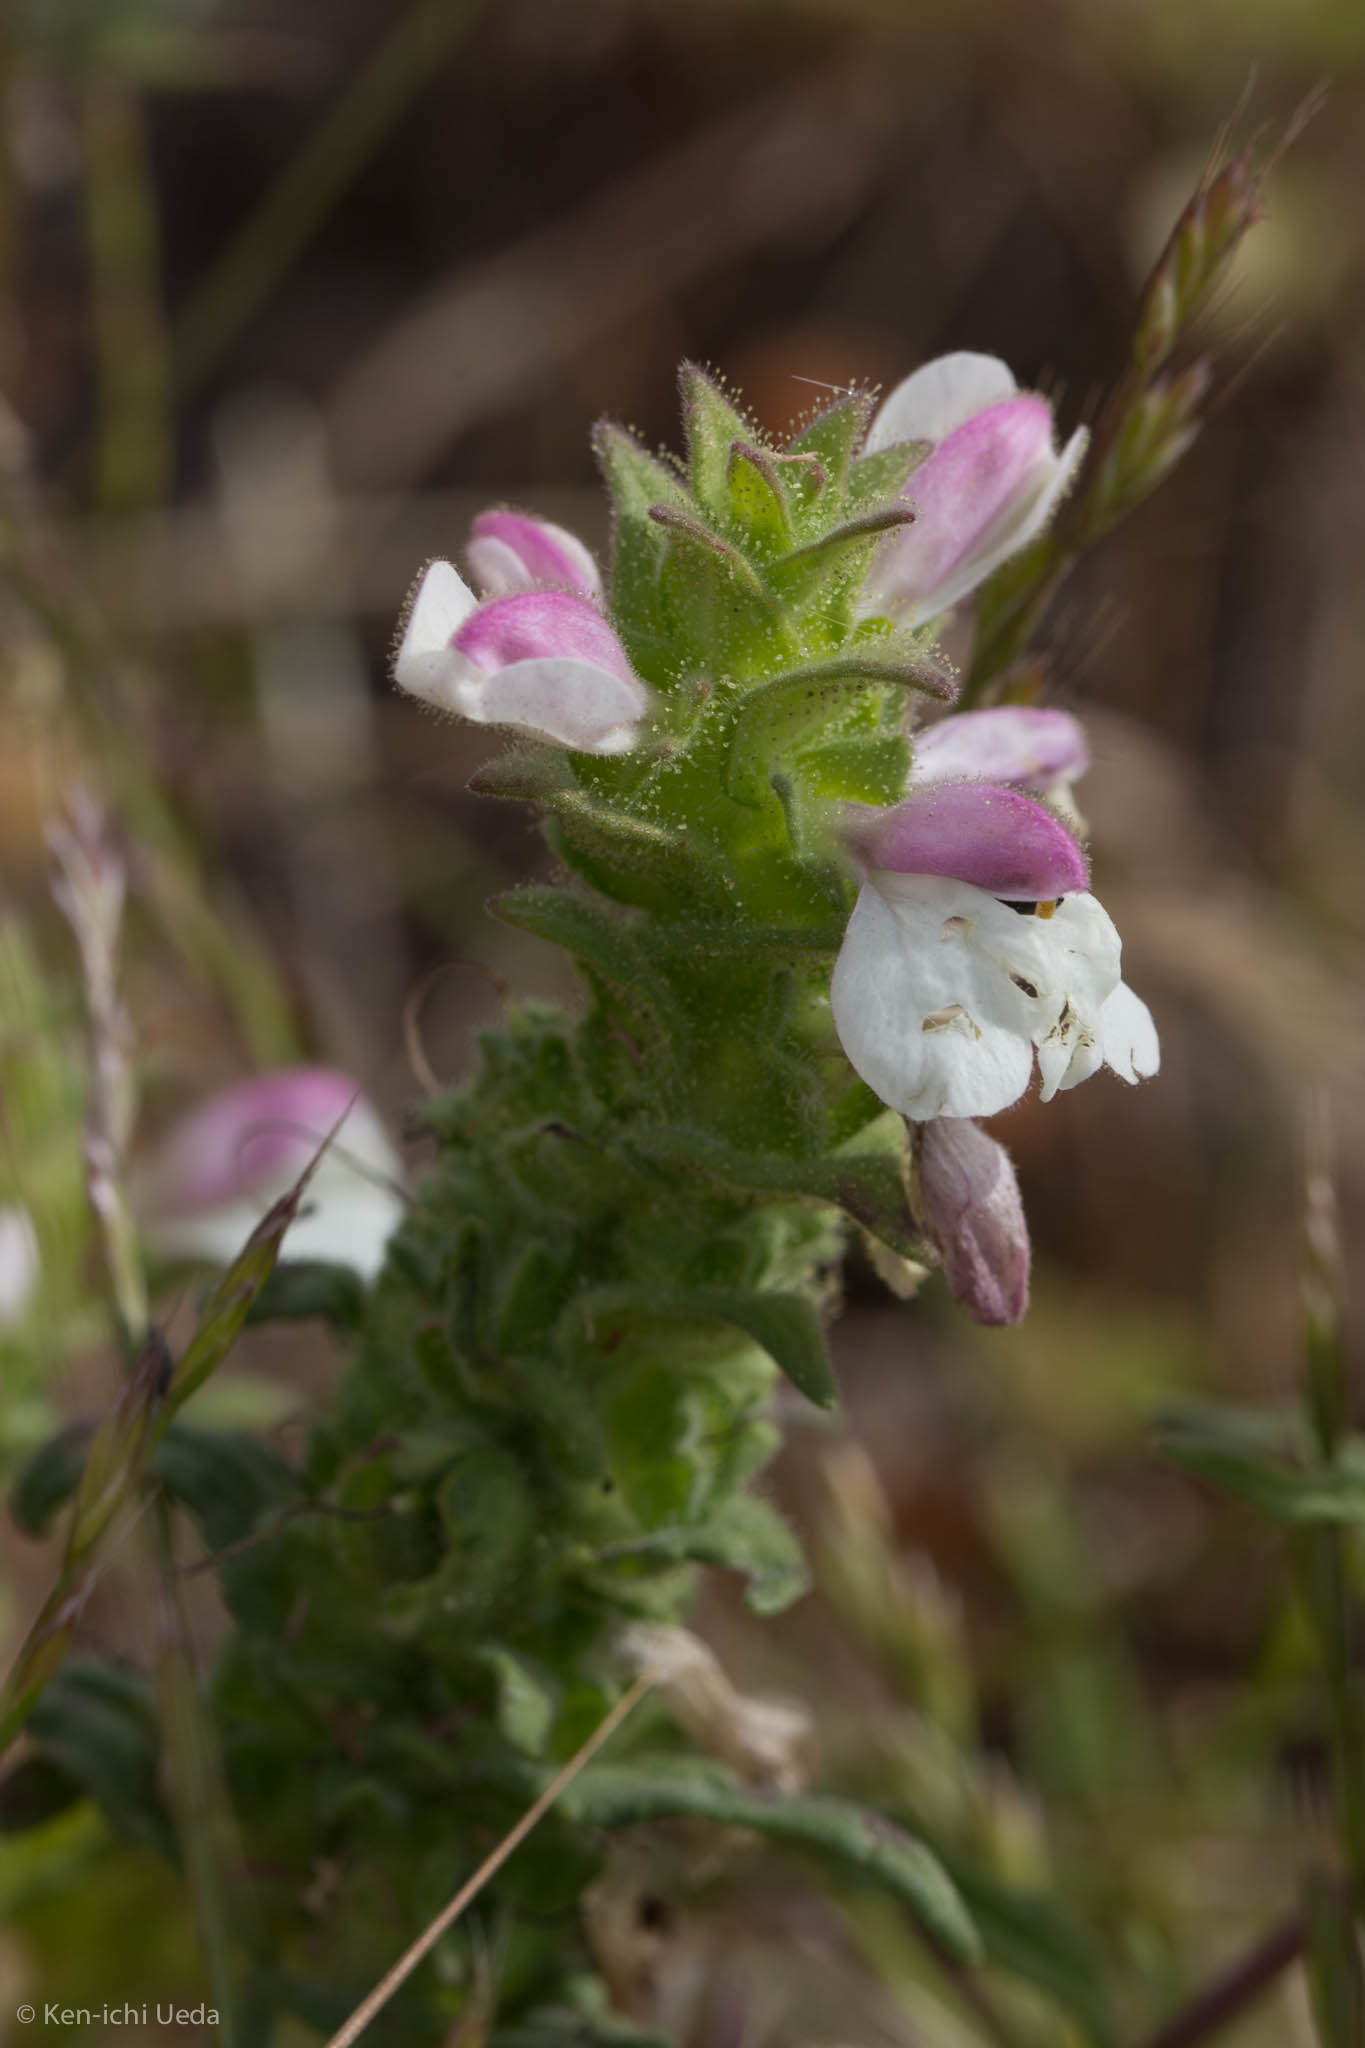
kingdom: Plantae
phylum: Tracheophyta
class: Magnoliopsida
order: Lamiales
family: Orobanchaceae
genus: Bellardia
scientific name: Bellardia trixago
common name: Mediterranean lineseed
